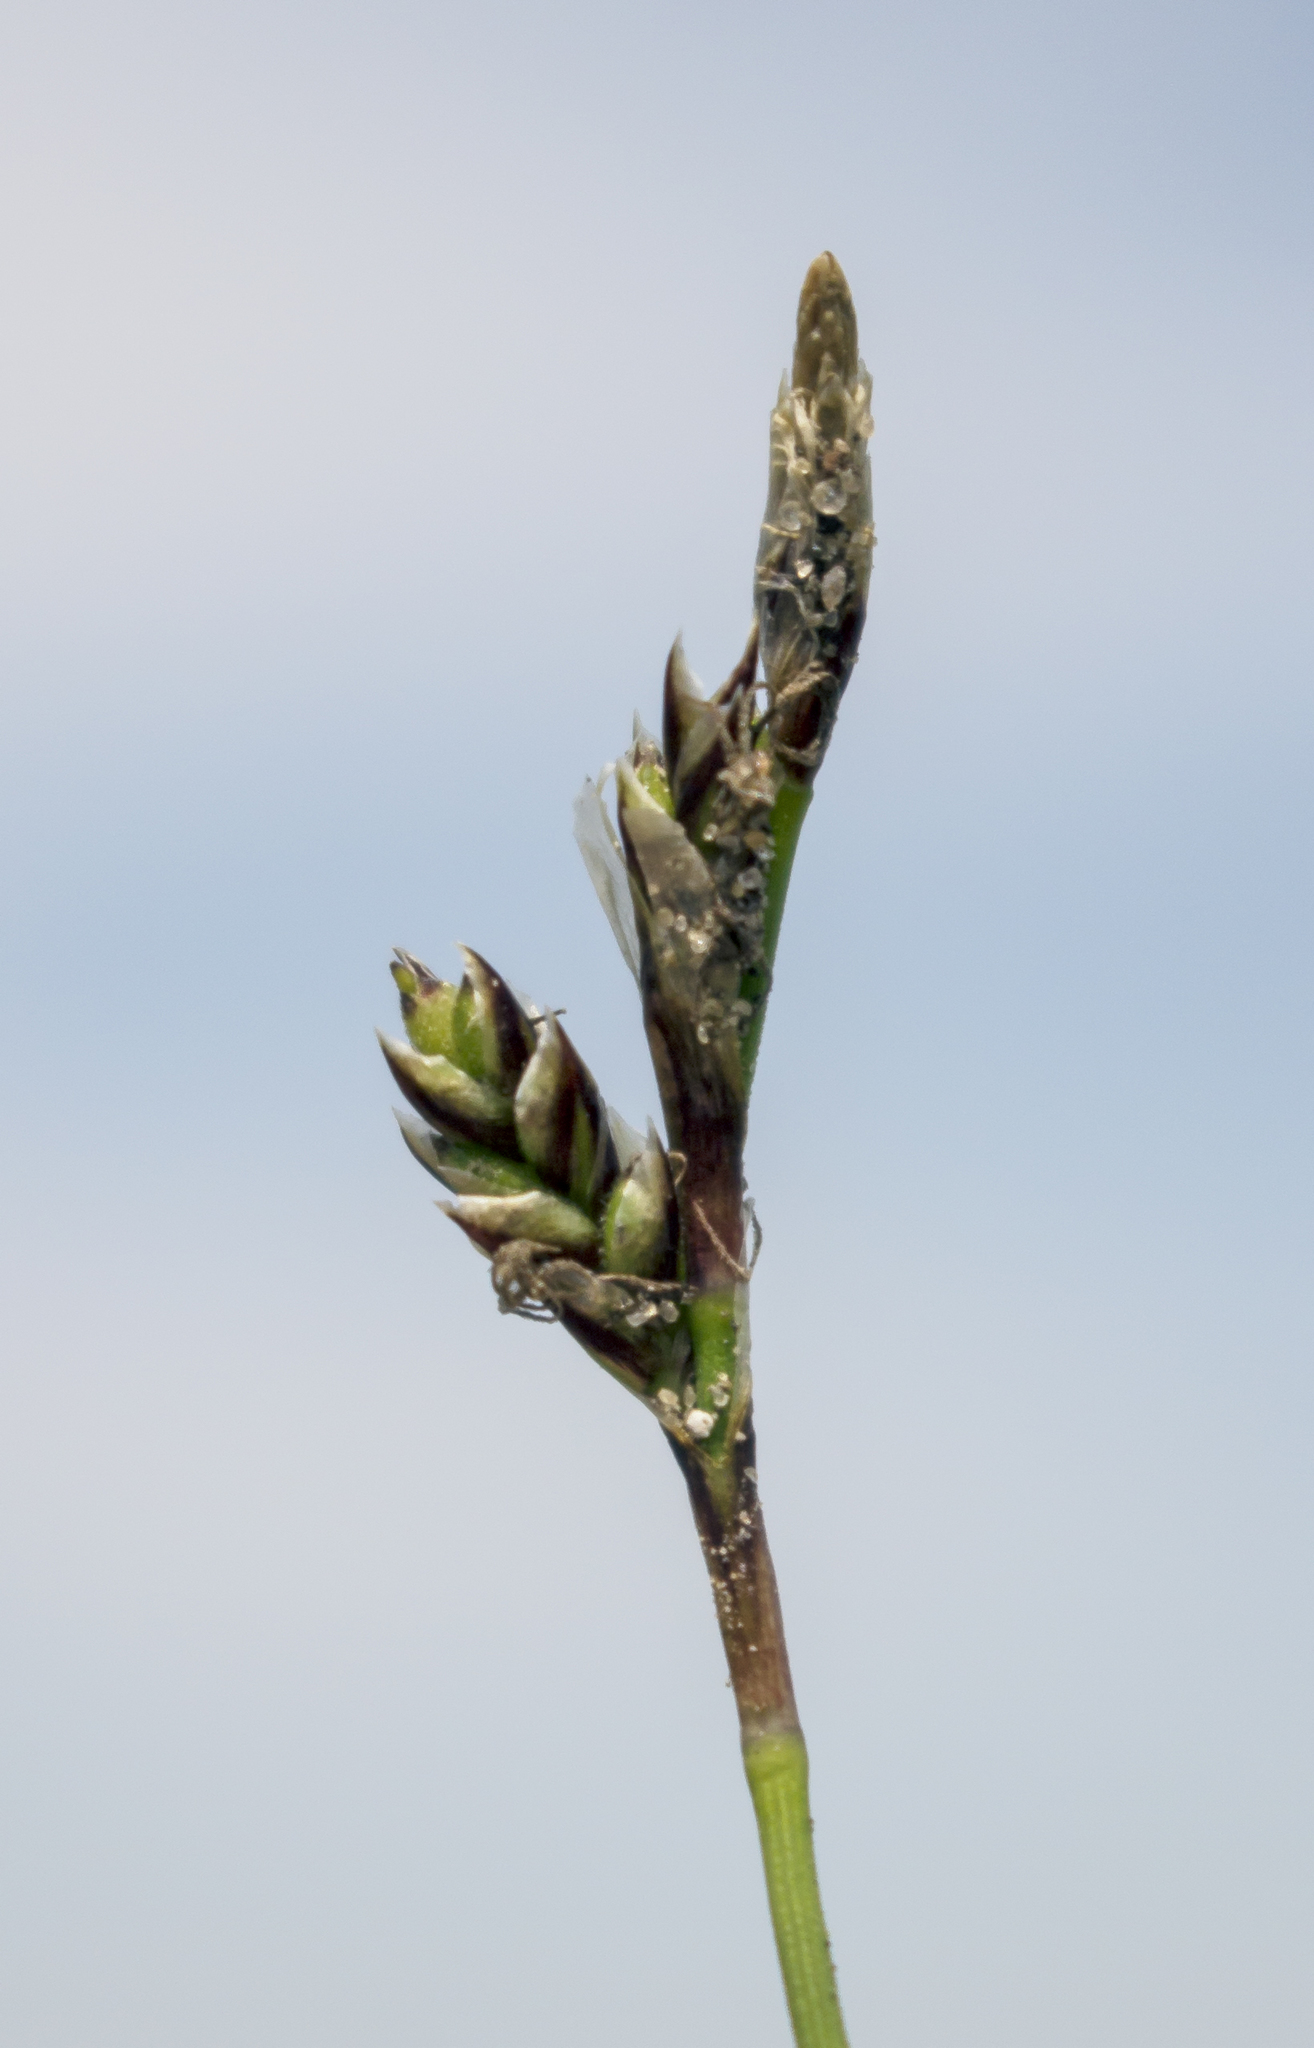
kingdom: Plantae
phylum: Tracheophyta
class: Liliopsida
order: Poales
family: Cyperaceae
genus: Carex
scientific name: Carex richardsonii
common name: Prairie hummock sedge
